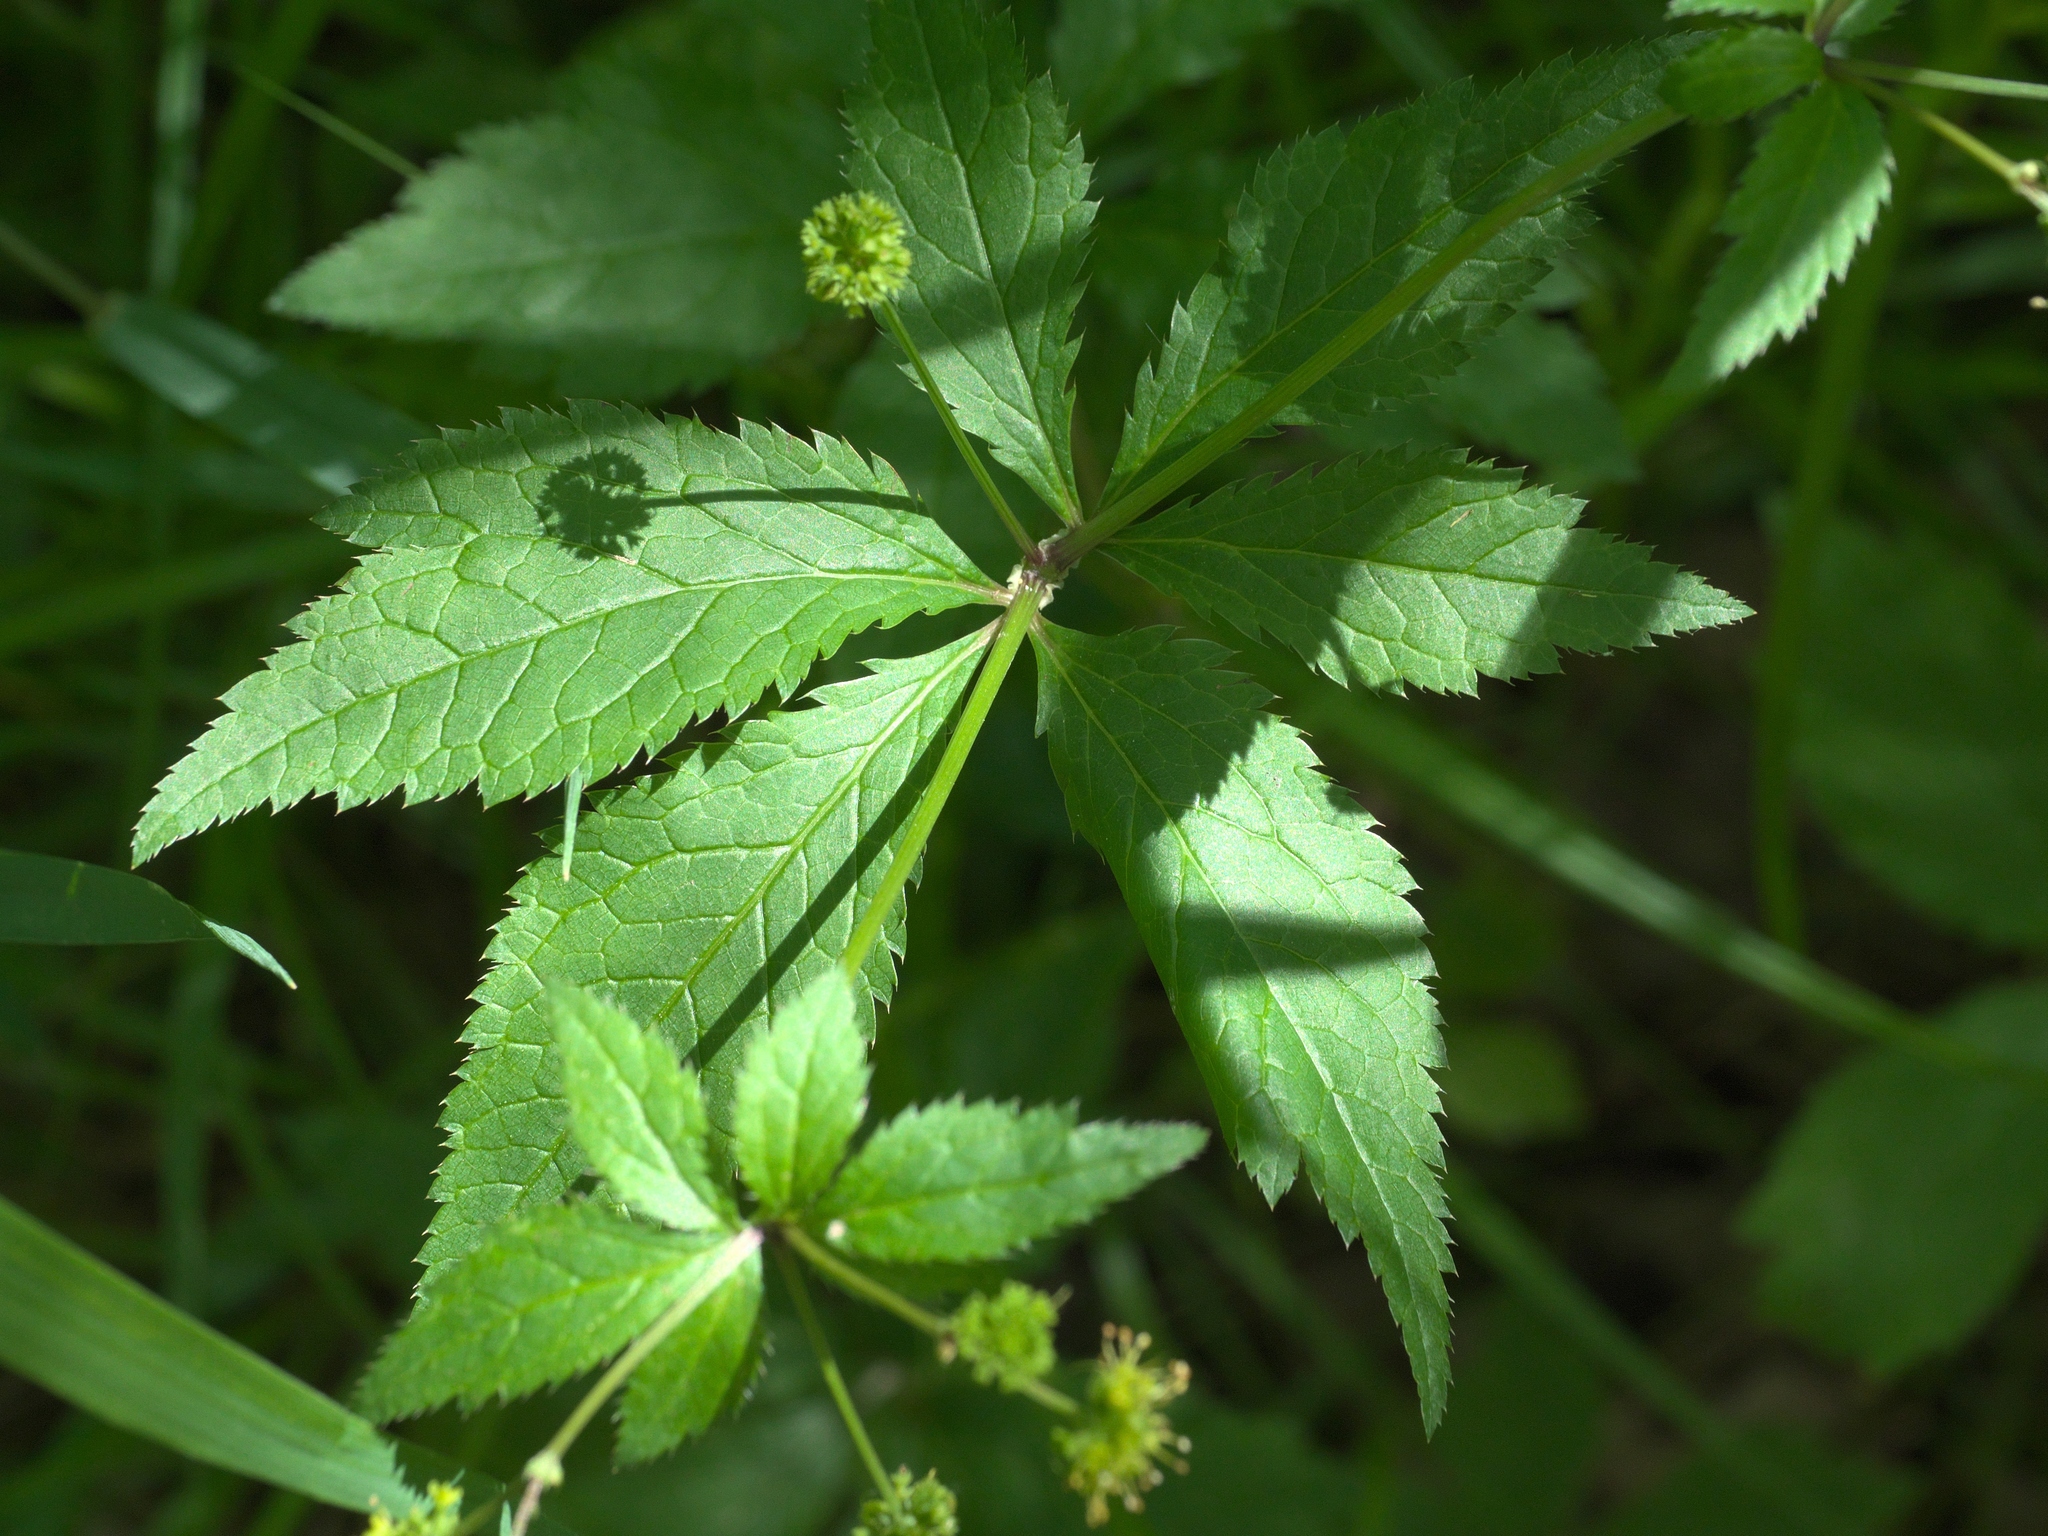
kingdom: Plantae
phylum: Tracheophyta
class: Magnoliopsida
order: Apiales
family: Apiaceae
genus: Sanicula
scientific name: Sanicula odorata
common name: Cluster sanicle
